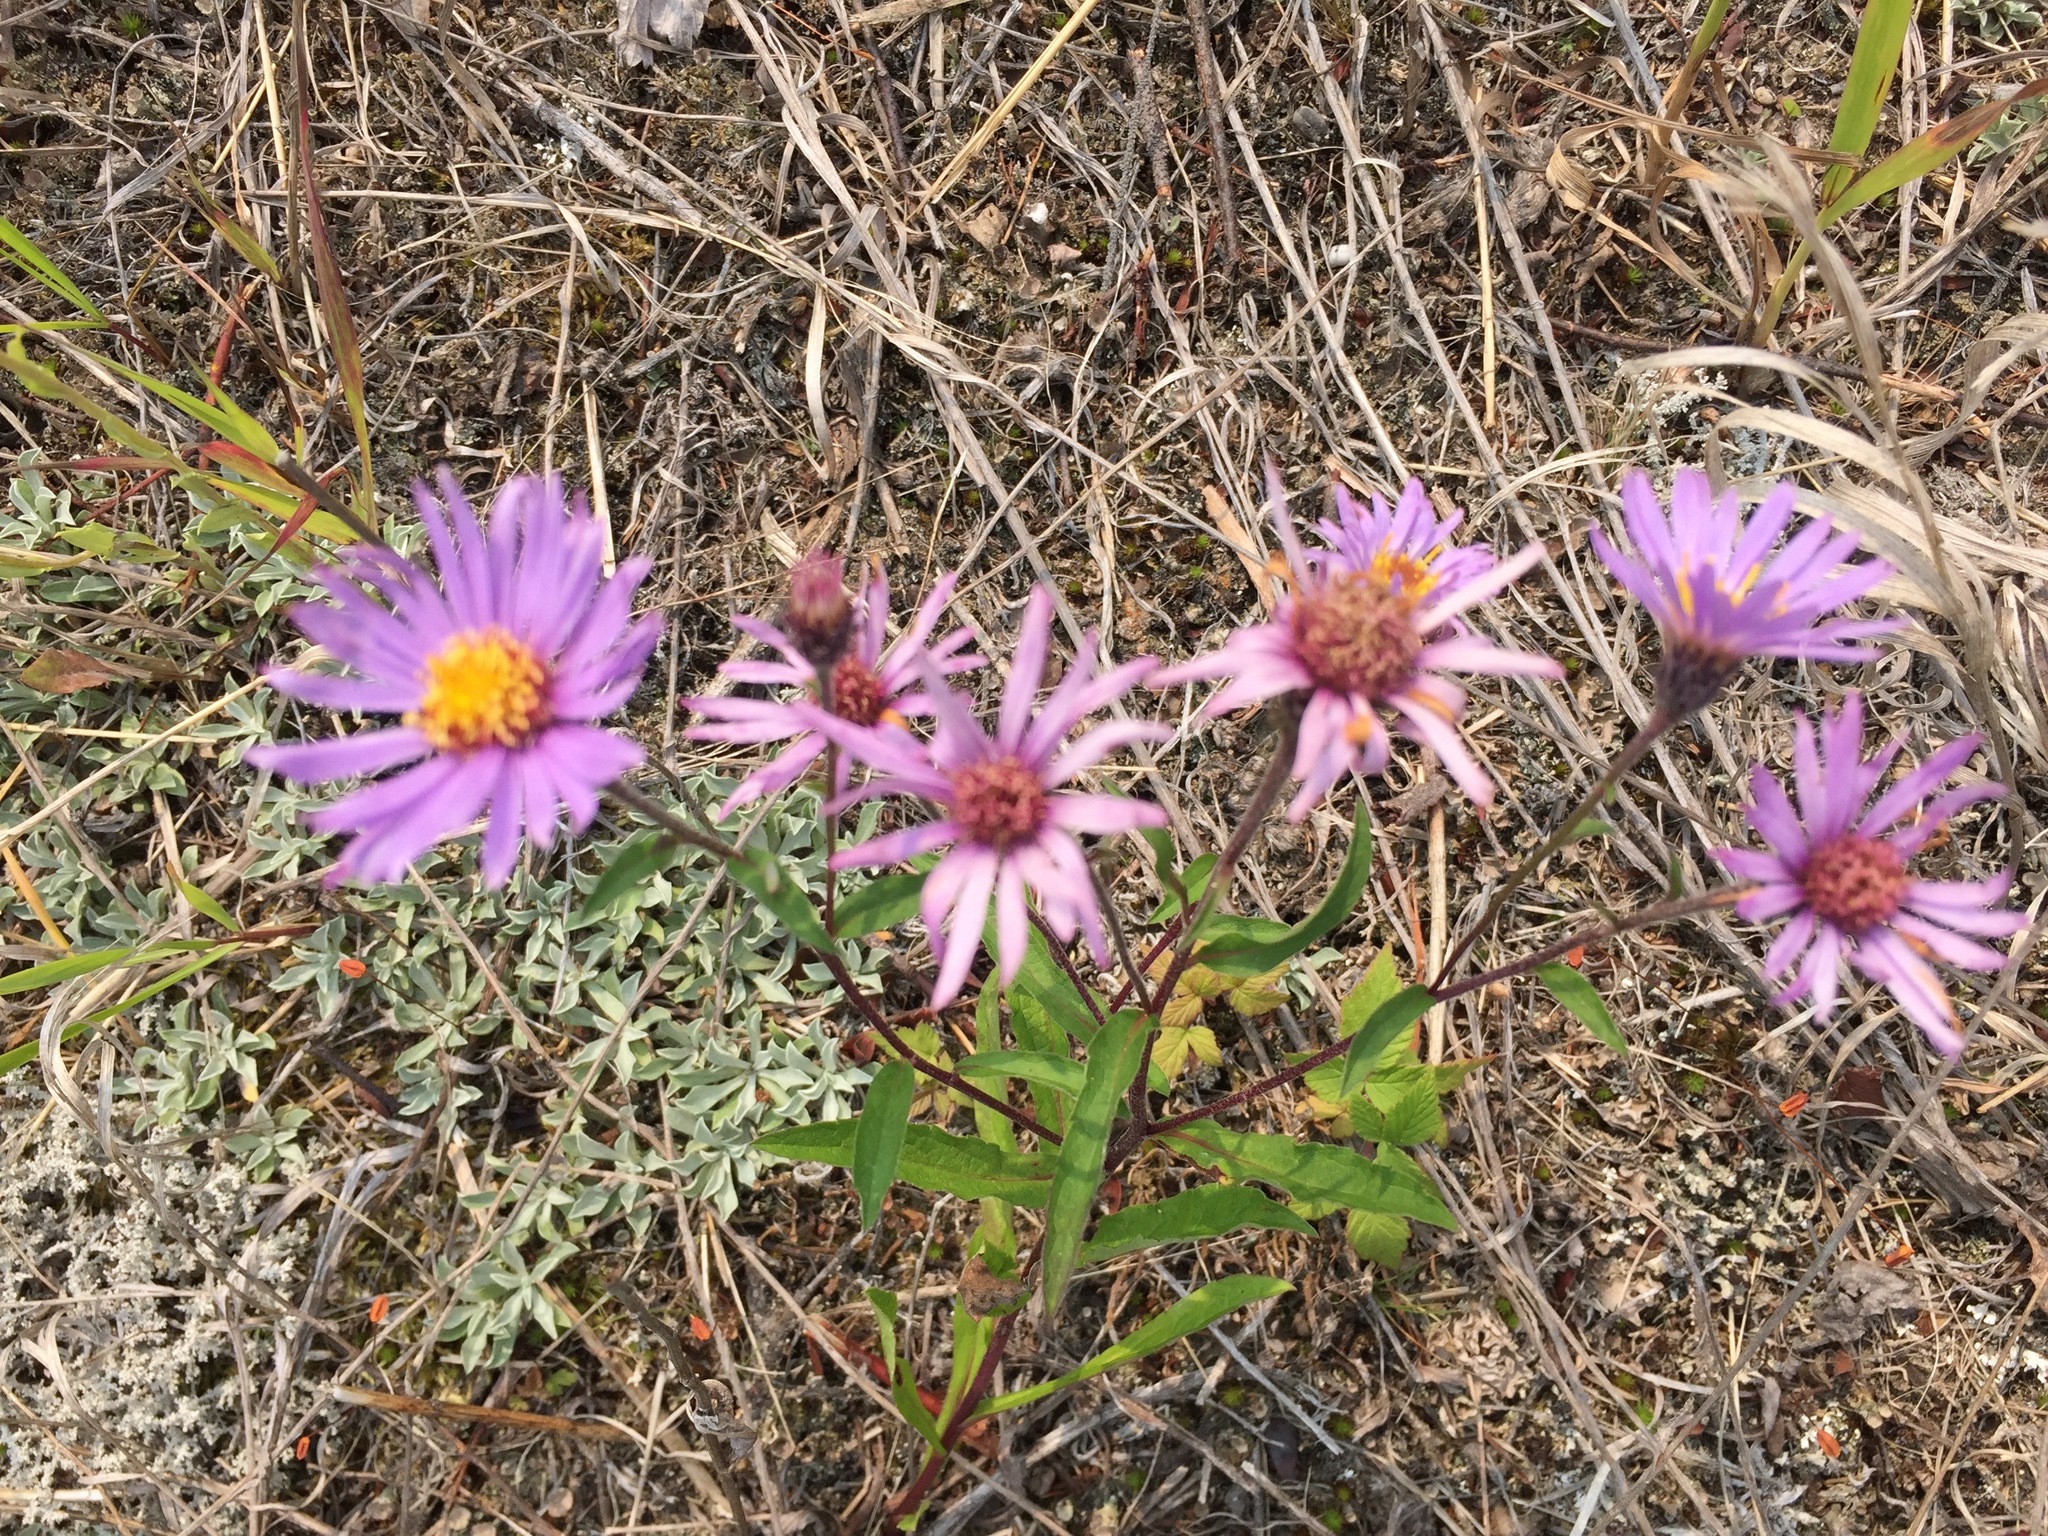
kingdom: Plantae
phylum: Tracheophyta
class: Magnoliopsida
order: Asterales
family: Asteraceae
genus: Eurybia
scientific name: Eurybia sibirica
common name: Arctic aster
